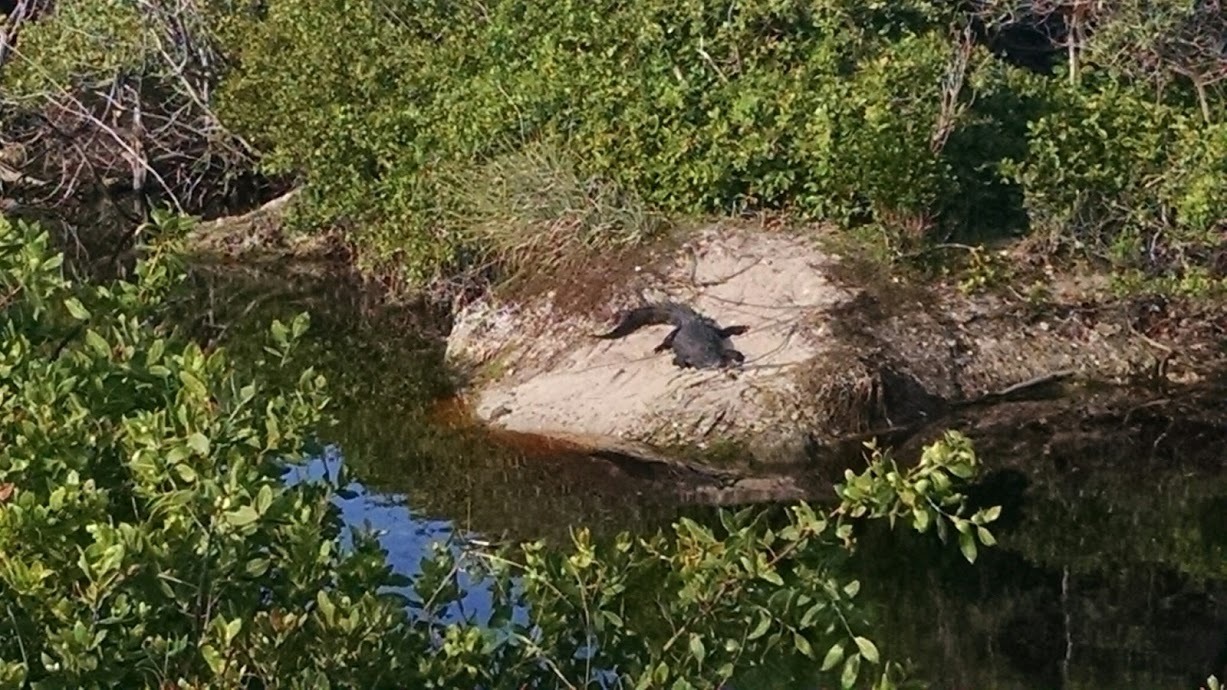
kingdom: Animalia
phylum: Chordata
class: Crocodylia
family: Crocodylidae
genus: Crocodylus
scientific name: Crocodylus moreletii
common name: Morelet's crocodile
